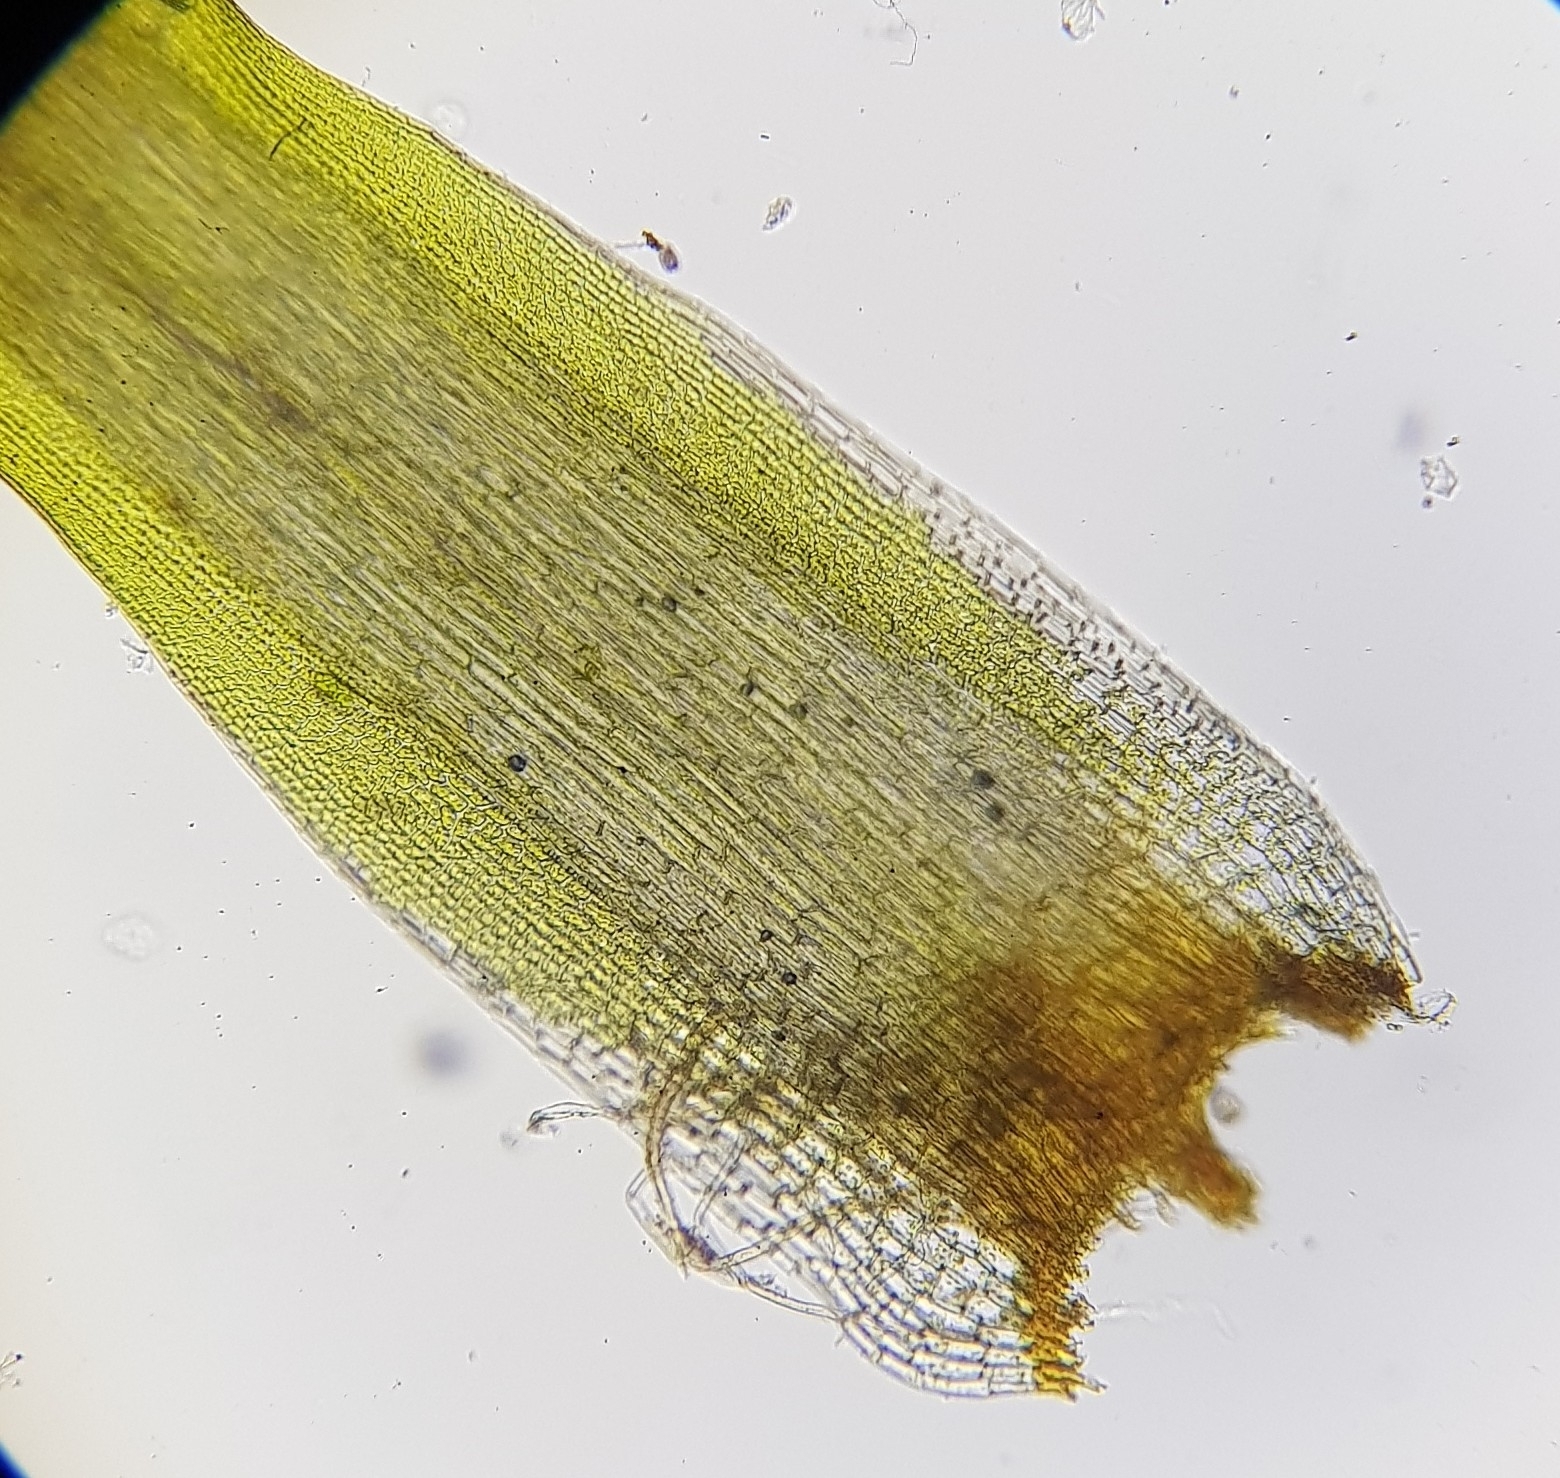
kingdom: Plantae
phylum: Bryophyta
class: Bryopsida
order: Dicranales
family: Leucobryaceae
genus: Campylopus
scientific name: Campylopus flexuosus
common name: Rusty swan-neck moss
